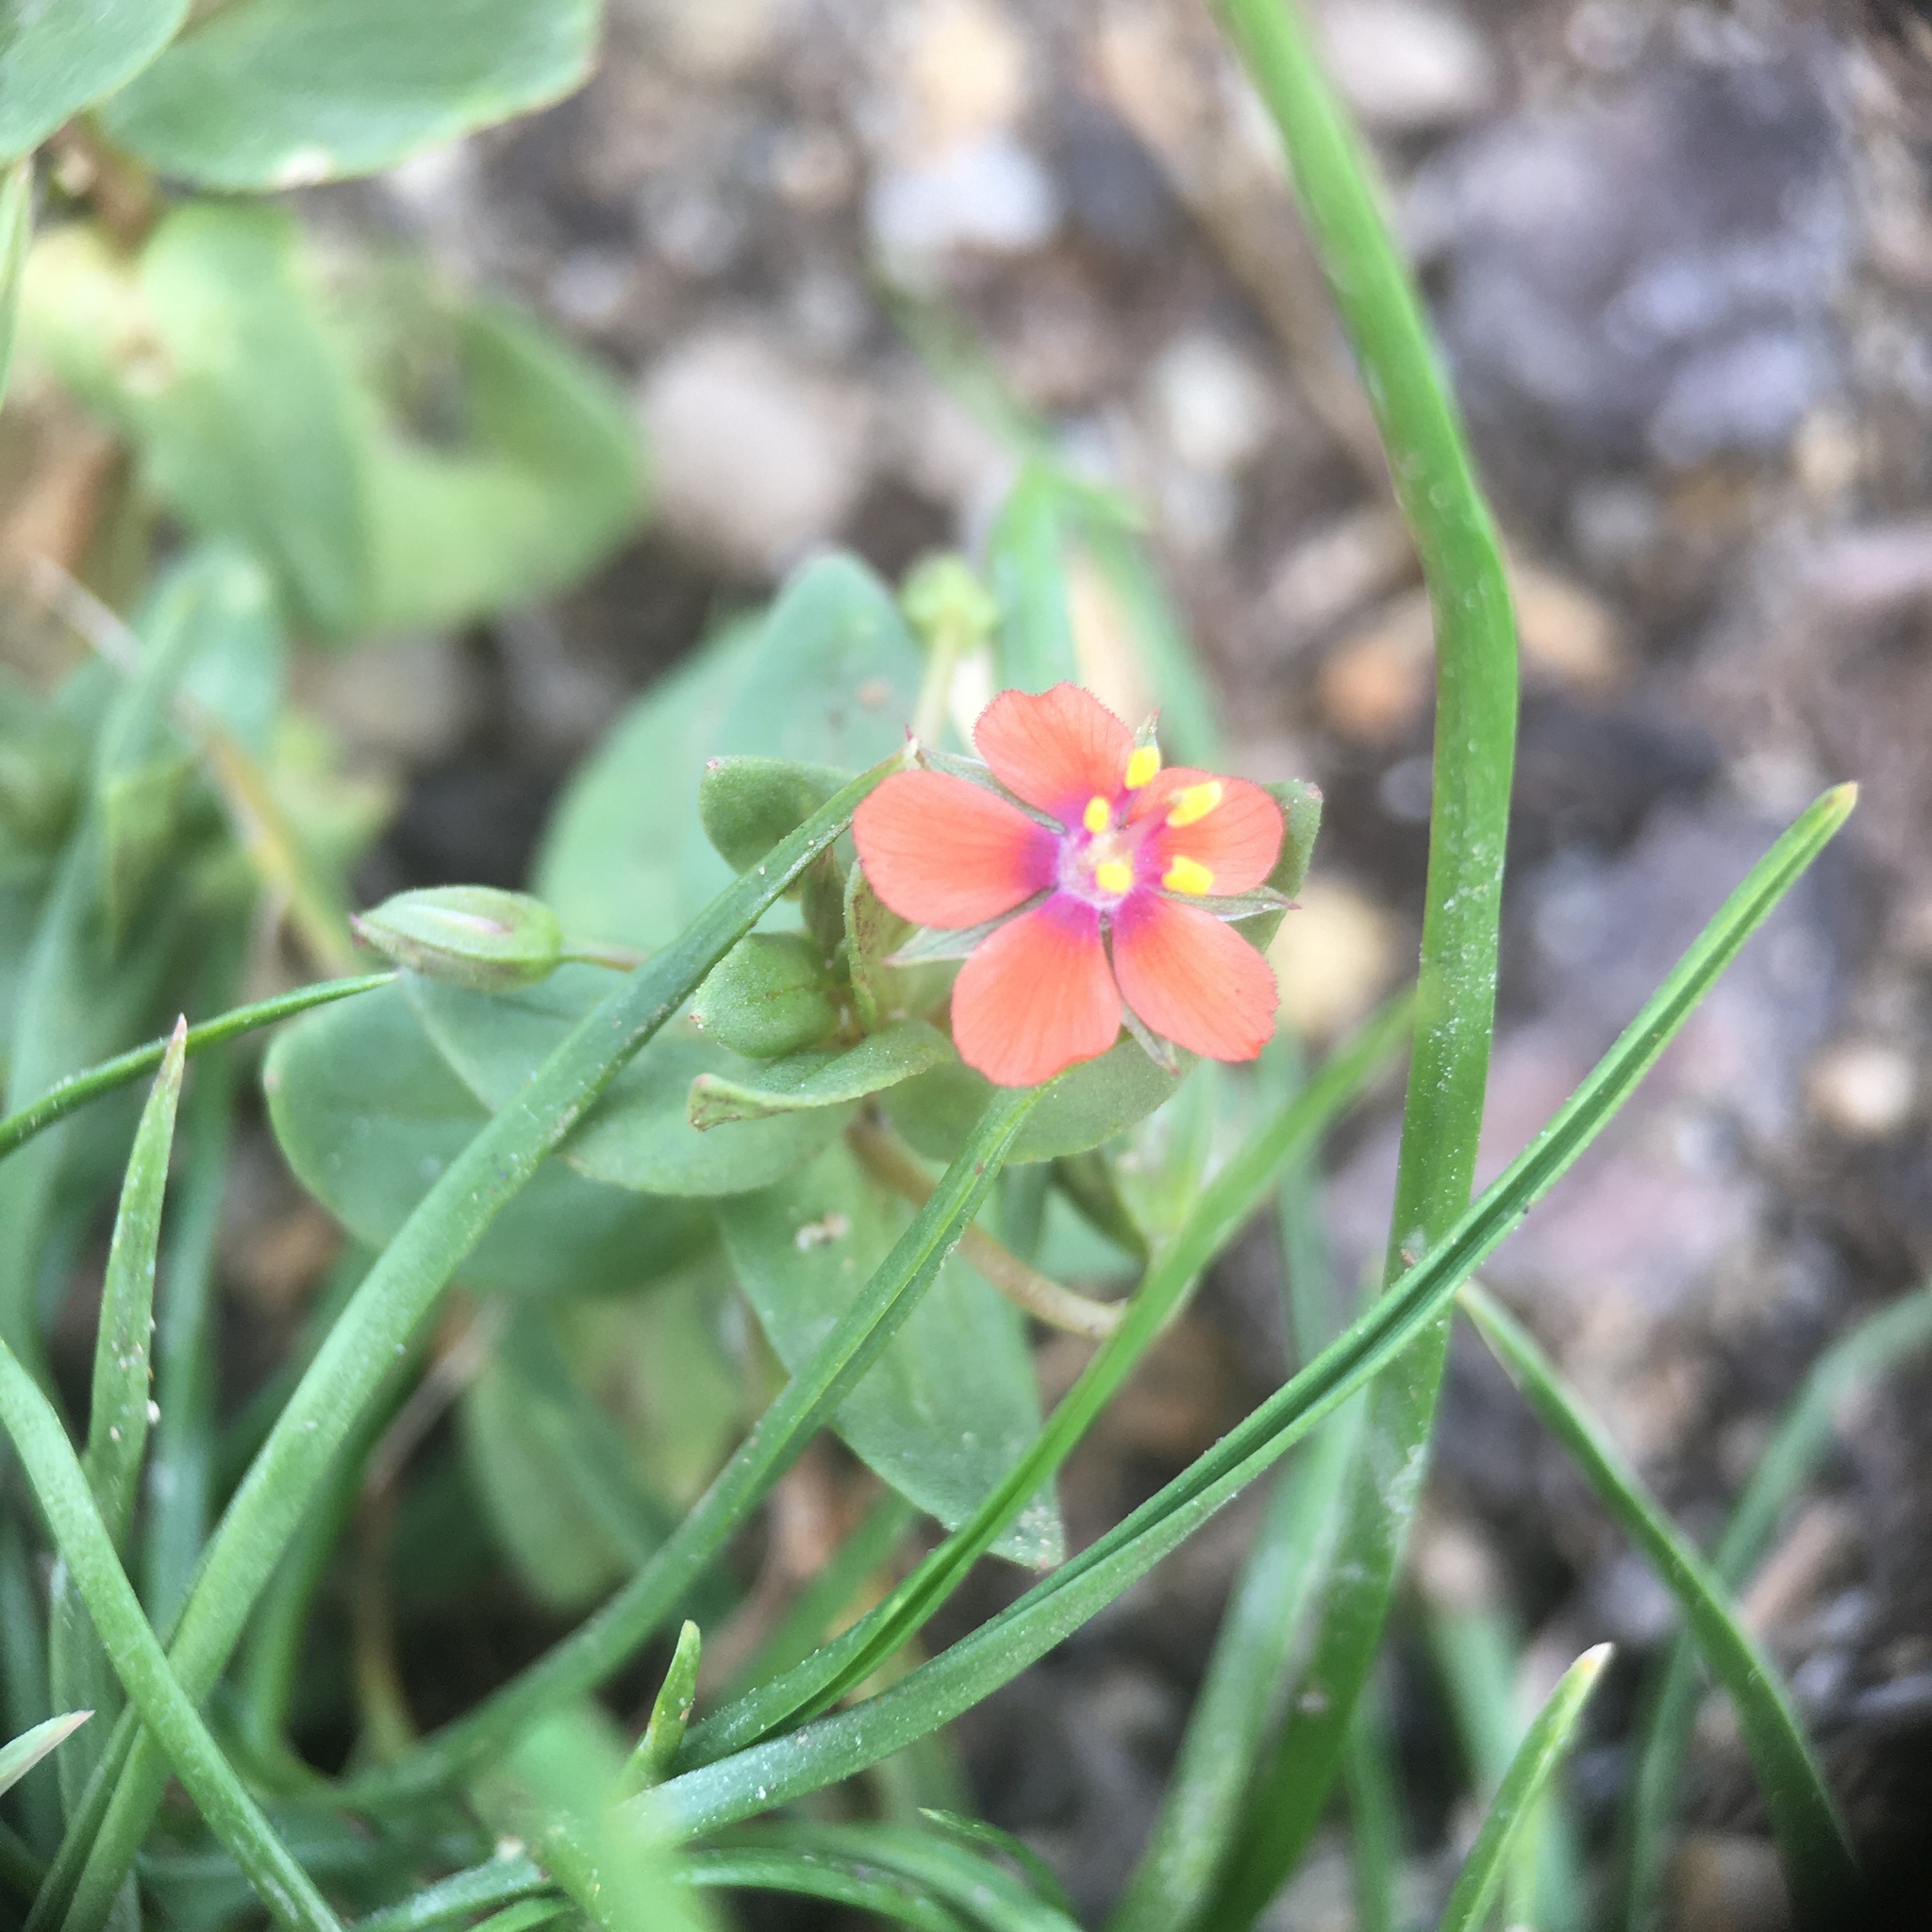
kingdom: Plantae
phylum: Tracheophyta
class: Magnoliopsida
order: Ericales
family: Primulaceae
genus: Lysimachia
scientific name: Lysimachia arvensis
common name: Scarlet pimpernel
